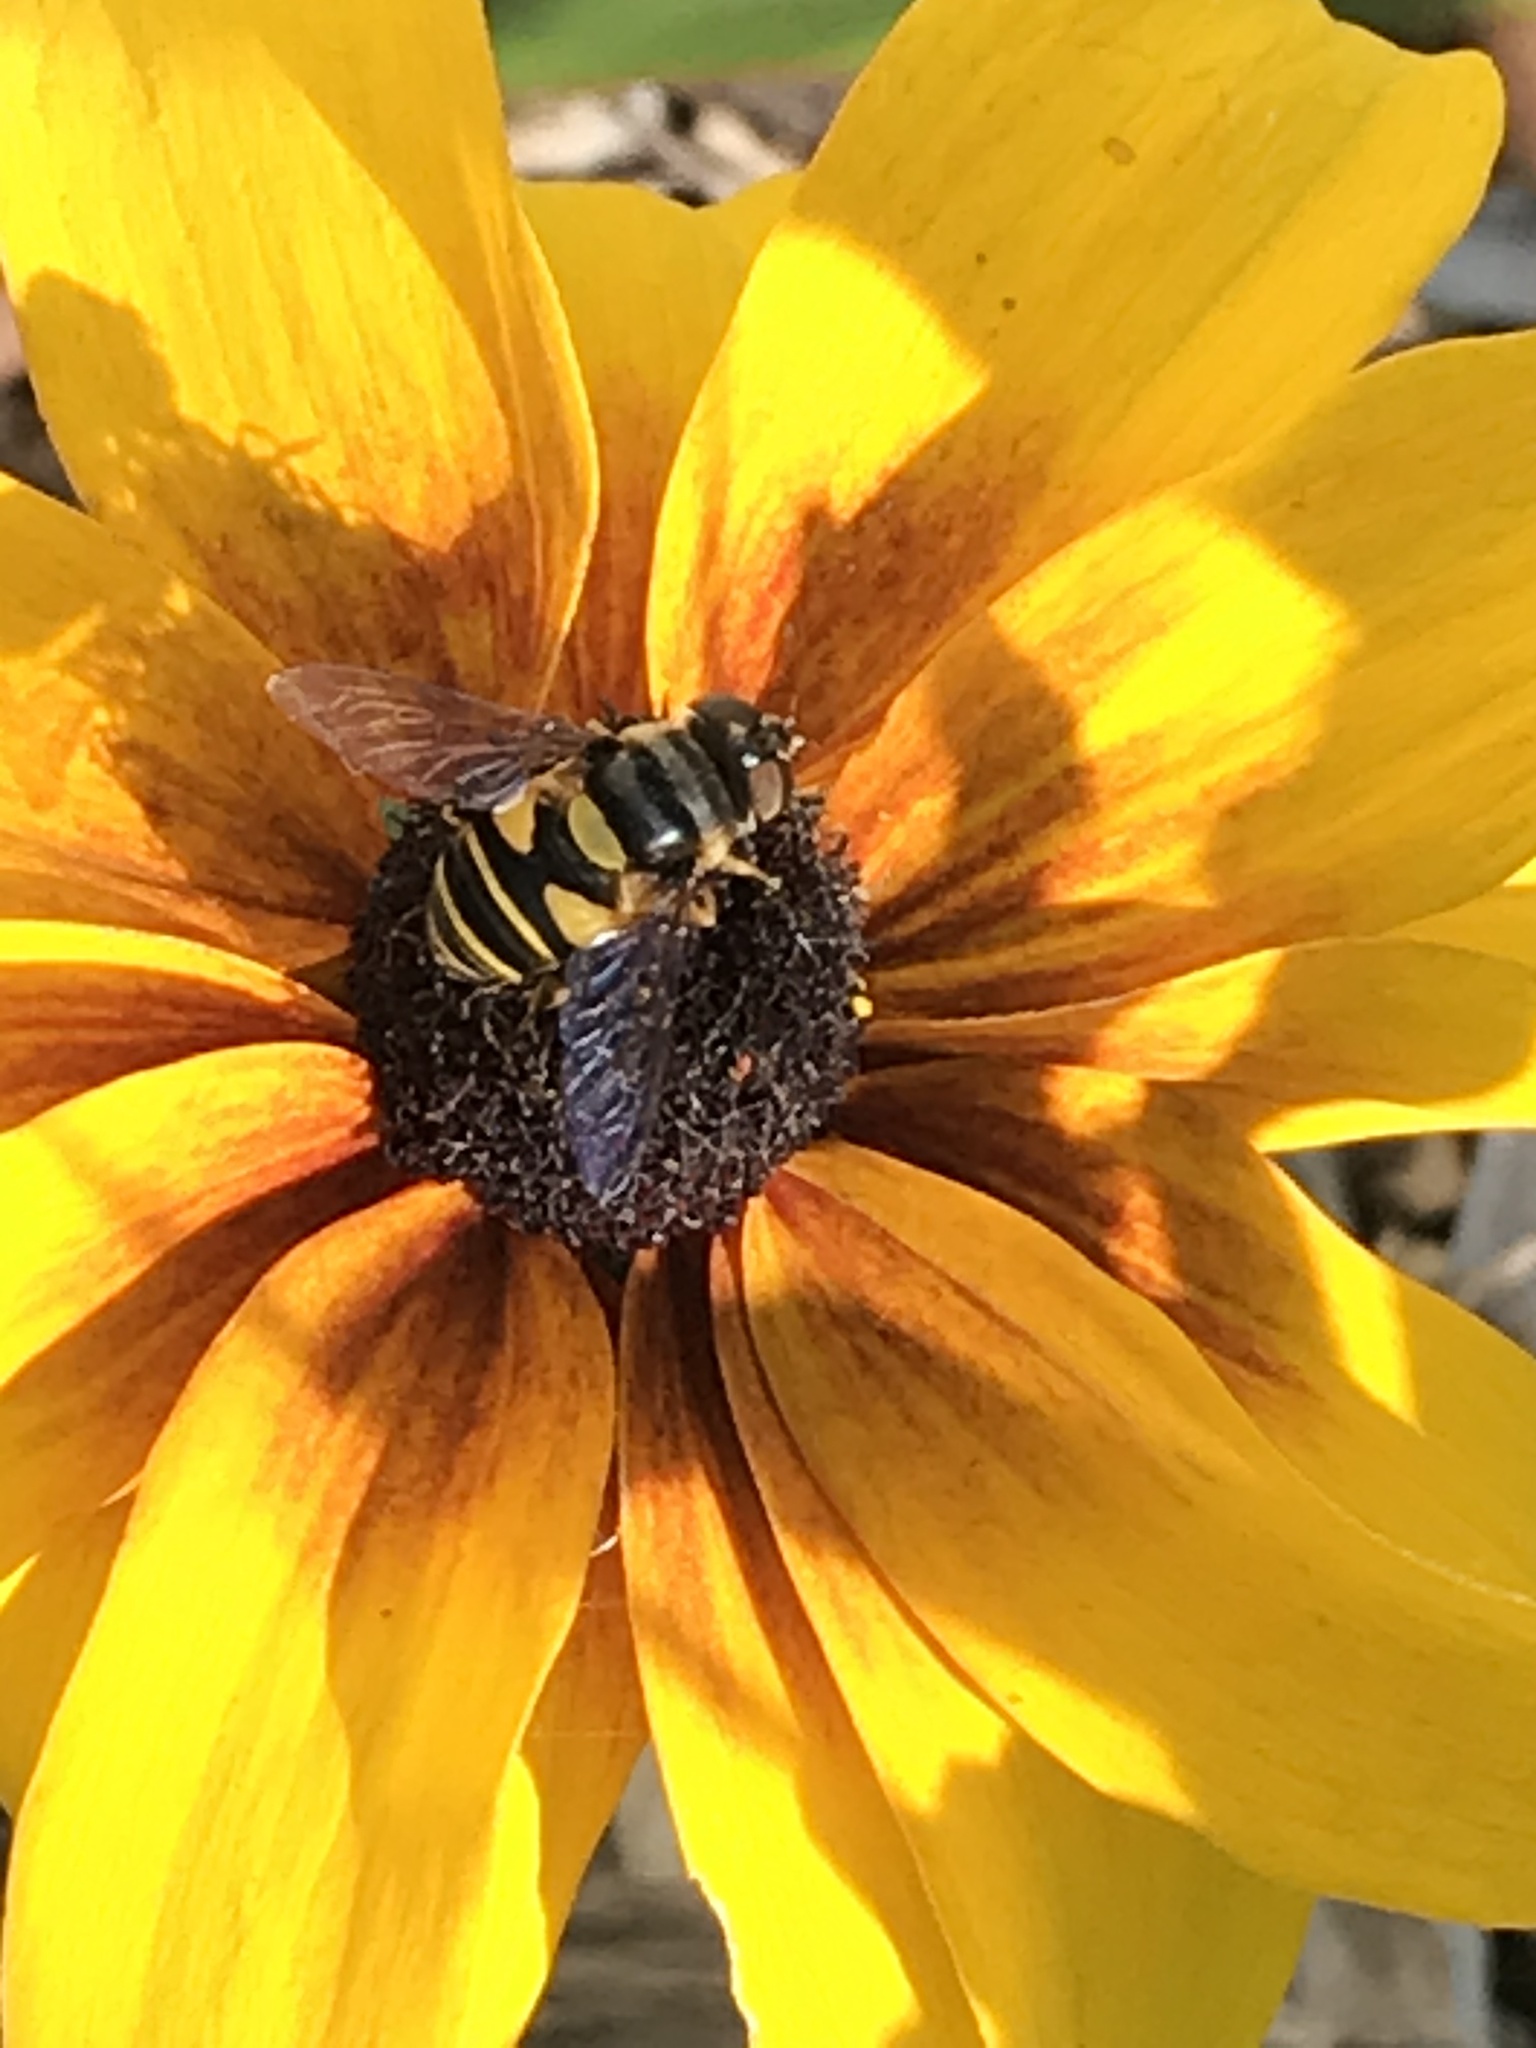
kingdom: Animalia
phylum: Arthropoda
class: Insecta
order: Diptera
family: Syrphidae
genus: Eristalis
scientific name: Eristalis transversa
